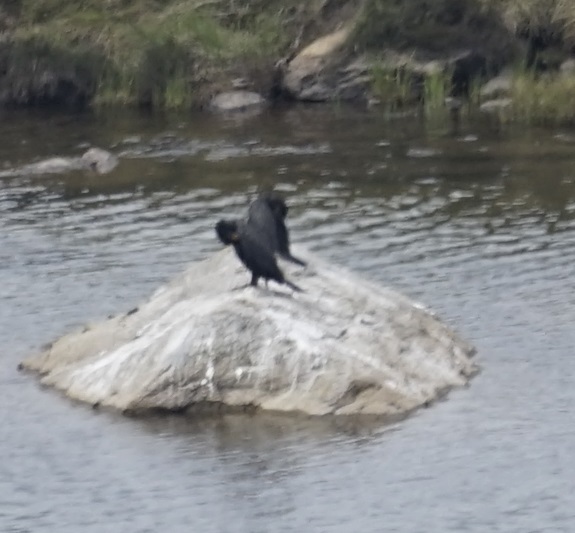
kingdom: Animalia
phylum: Chordata
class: Aves
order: Suliformes
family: Phalacrocoracidae
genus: Phalacrocorax
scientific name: Phalacrocorax carbo
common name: Great cormorant
